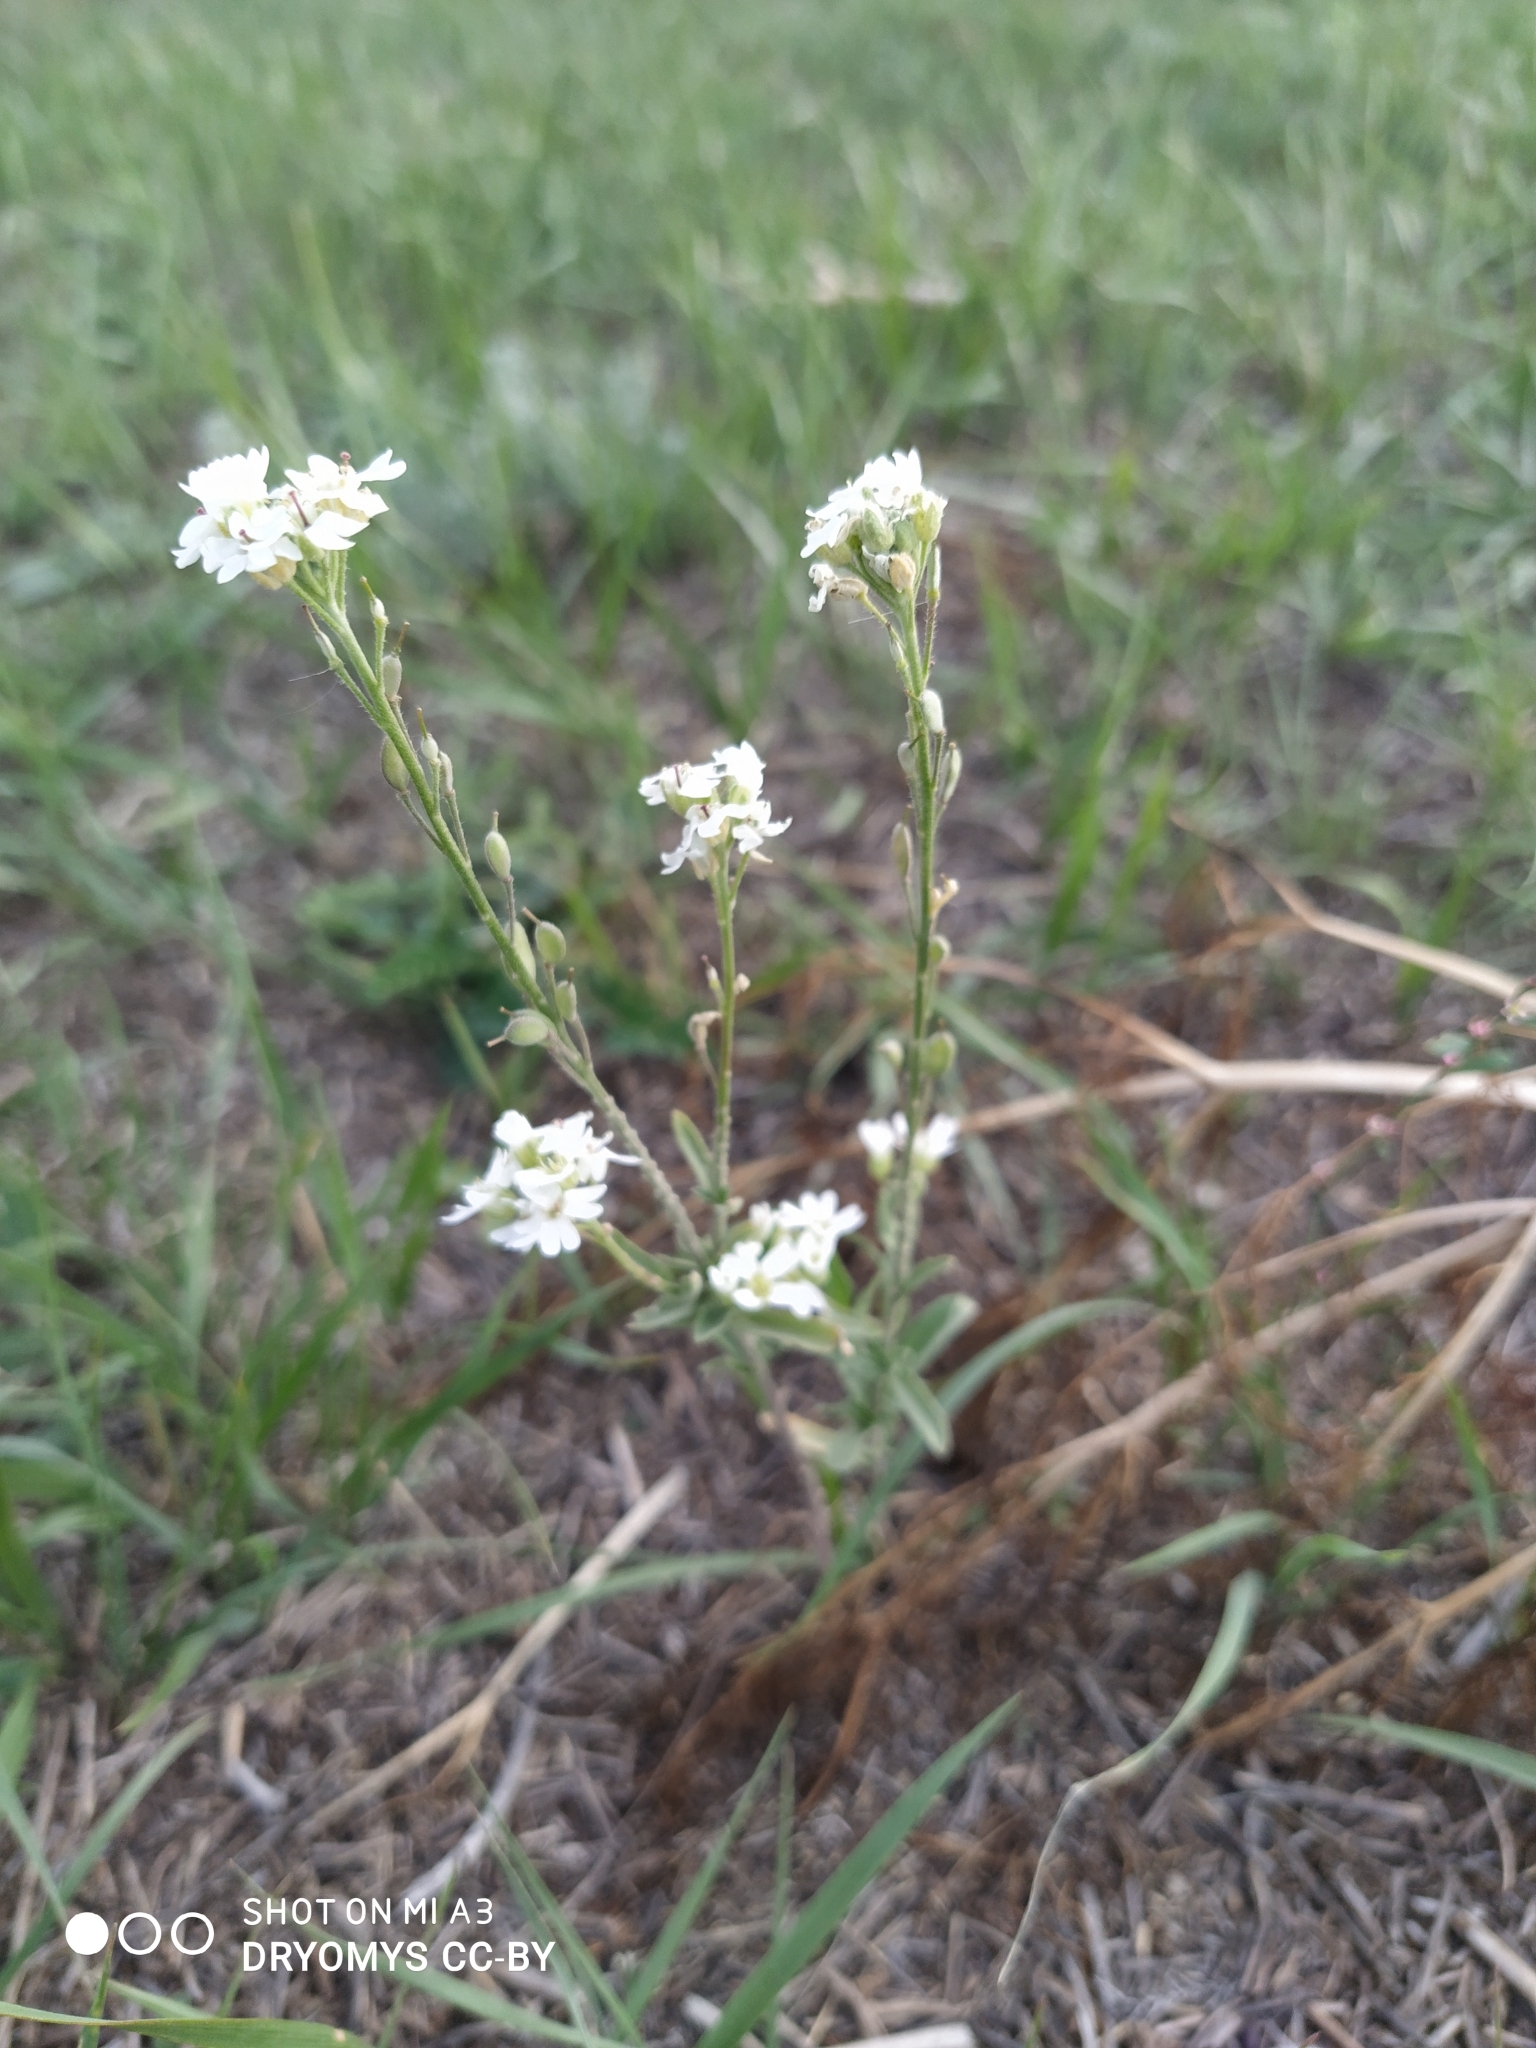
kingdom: Plantae
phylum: Tracheophyta
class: Magnoliopsida
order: Brassicales
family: Brassicaceae
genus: Berteroa
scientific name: Berteroa incana
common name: Hoary alison
